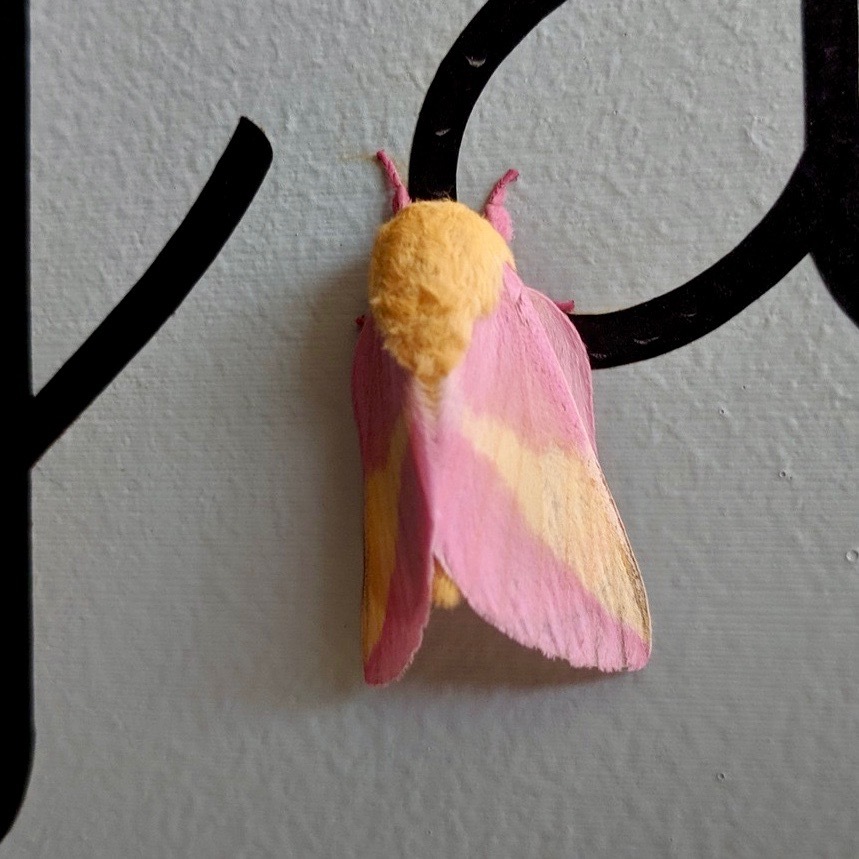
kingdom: Animalia
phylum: Arthropoda
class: Insecta
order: Lepidoptera
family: Saturniidae
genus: Dryocampa
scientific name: Dryocampa rubicunda
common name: Rosy maple moth
